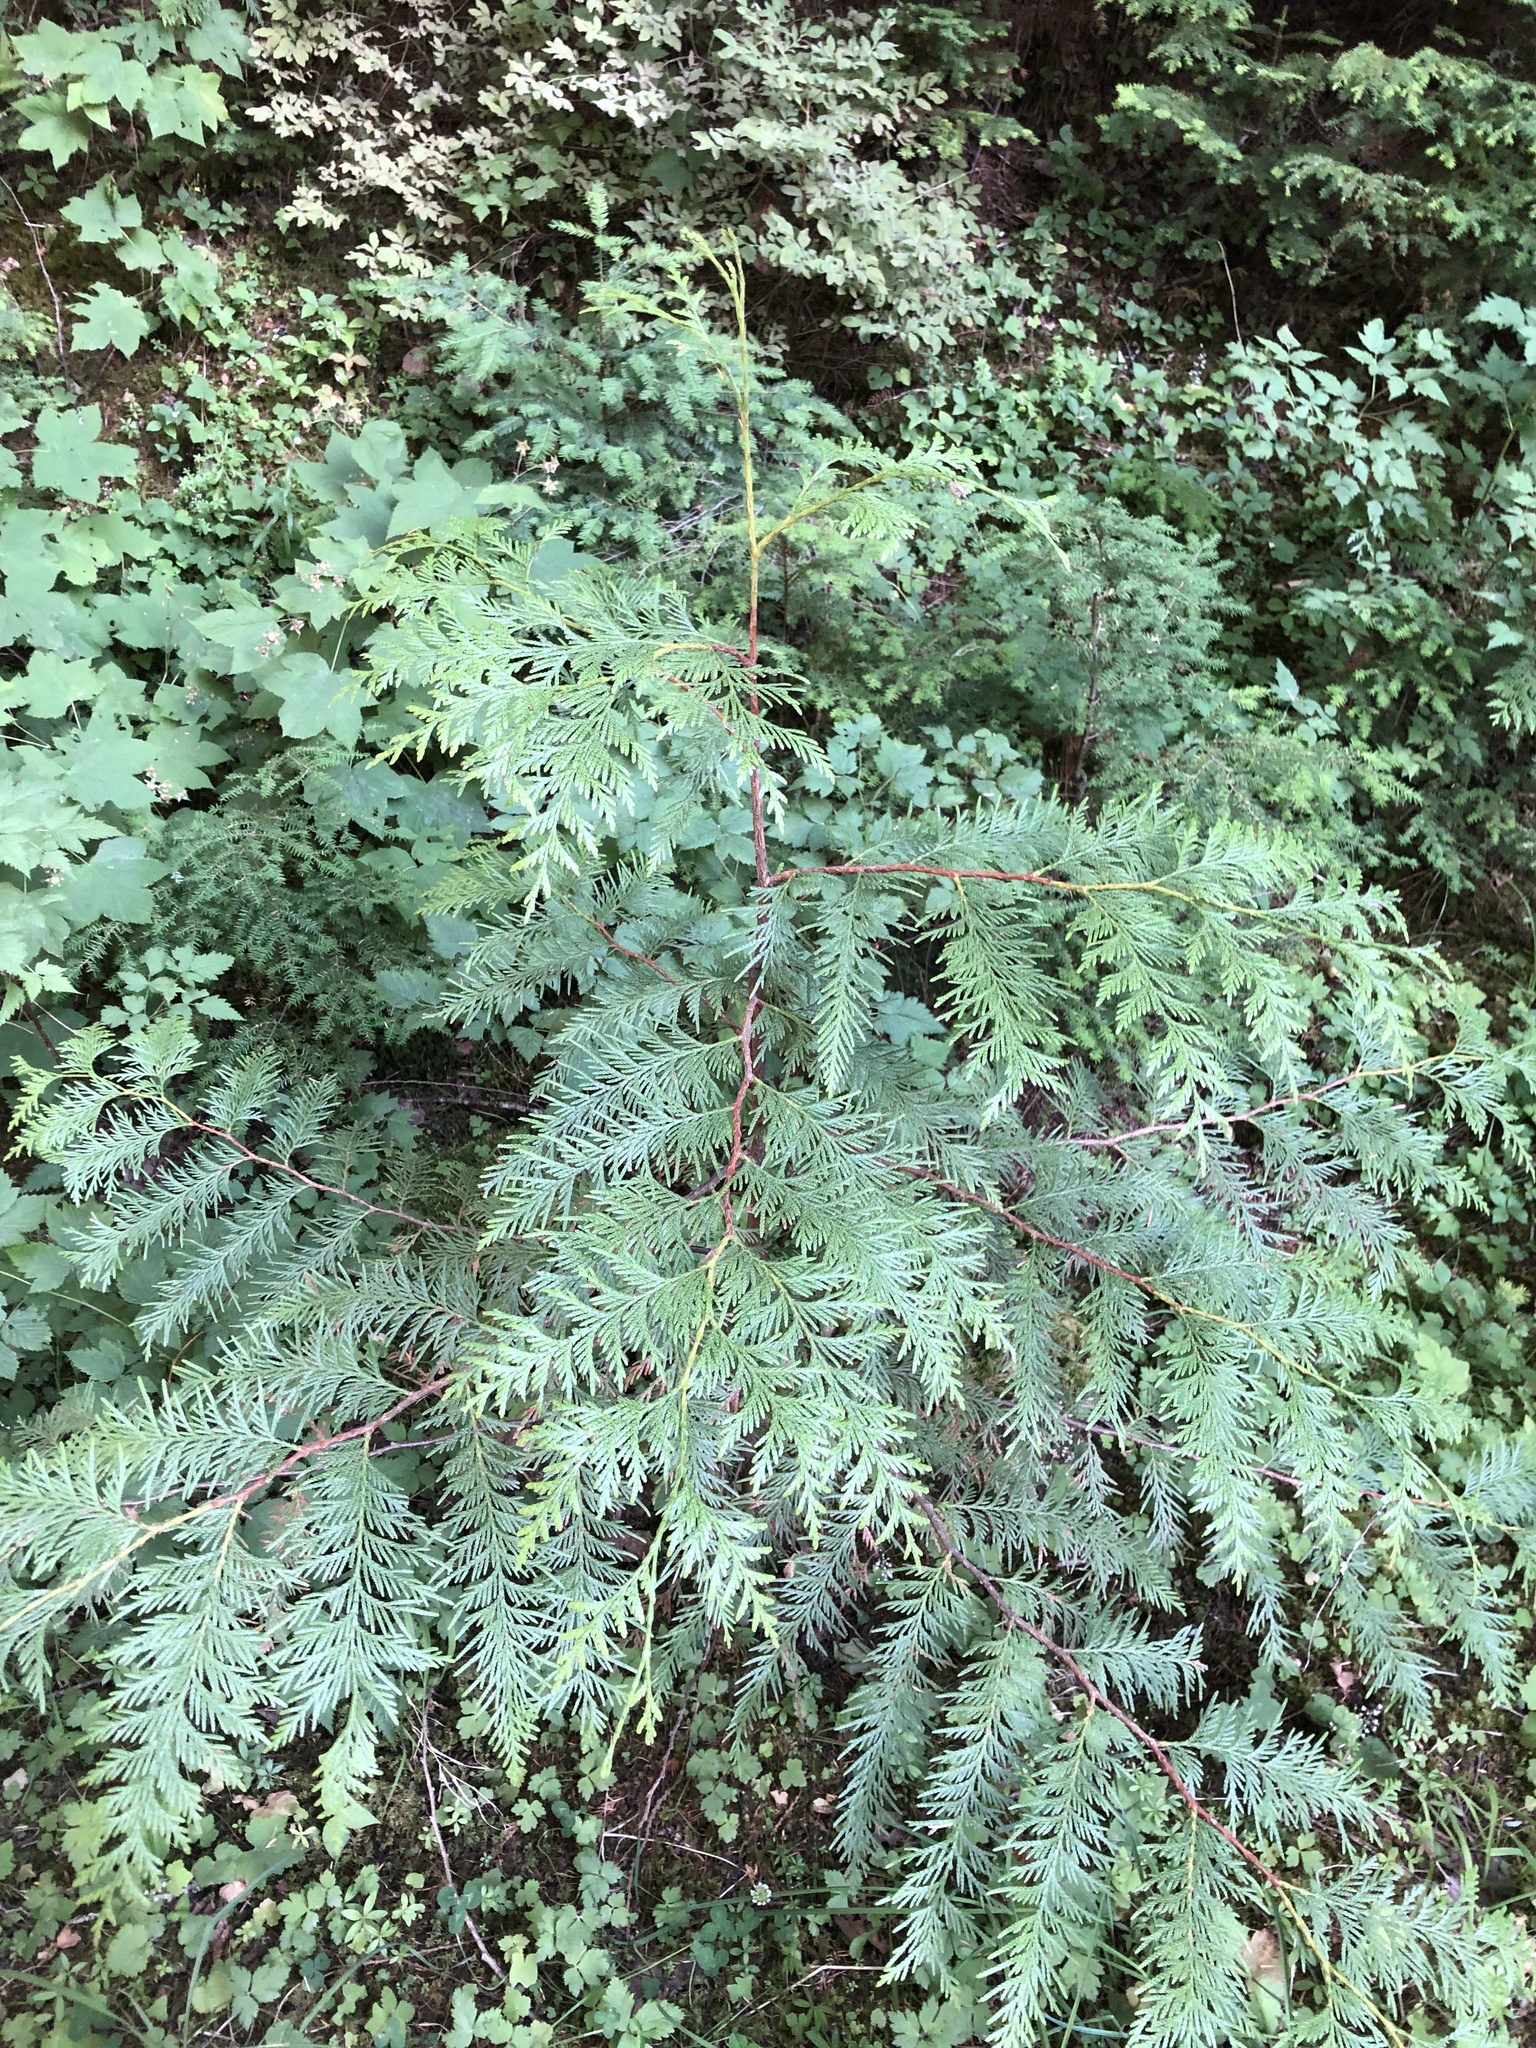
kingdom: Plantae
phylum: Tracheophyta
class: Pinopsida
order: Pinales
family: Cupressaceae
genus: Thuja
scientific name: Thuja plicata
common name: Western red-cedar
